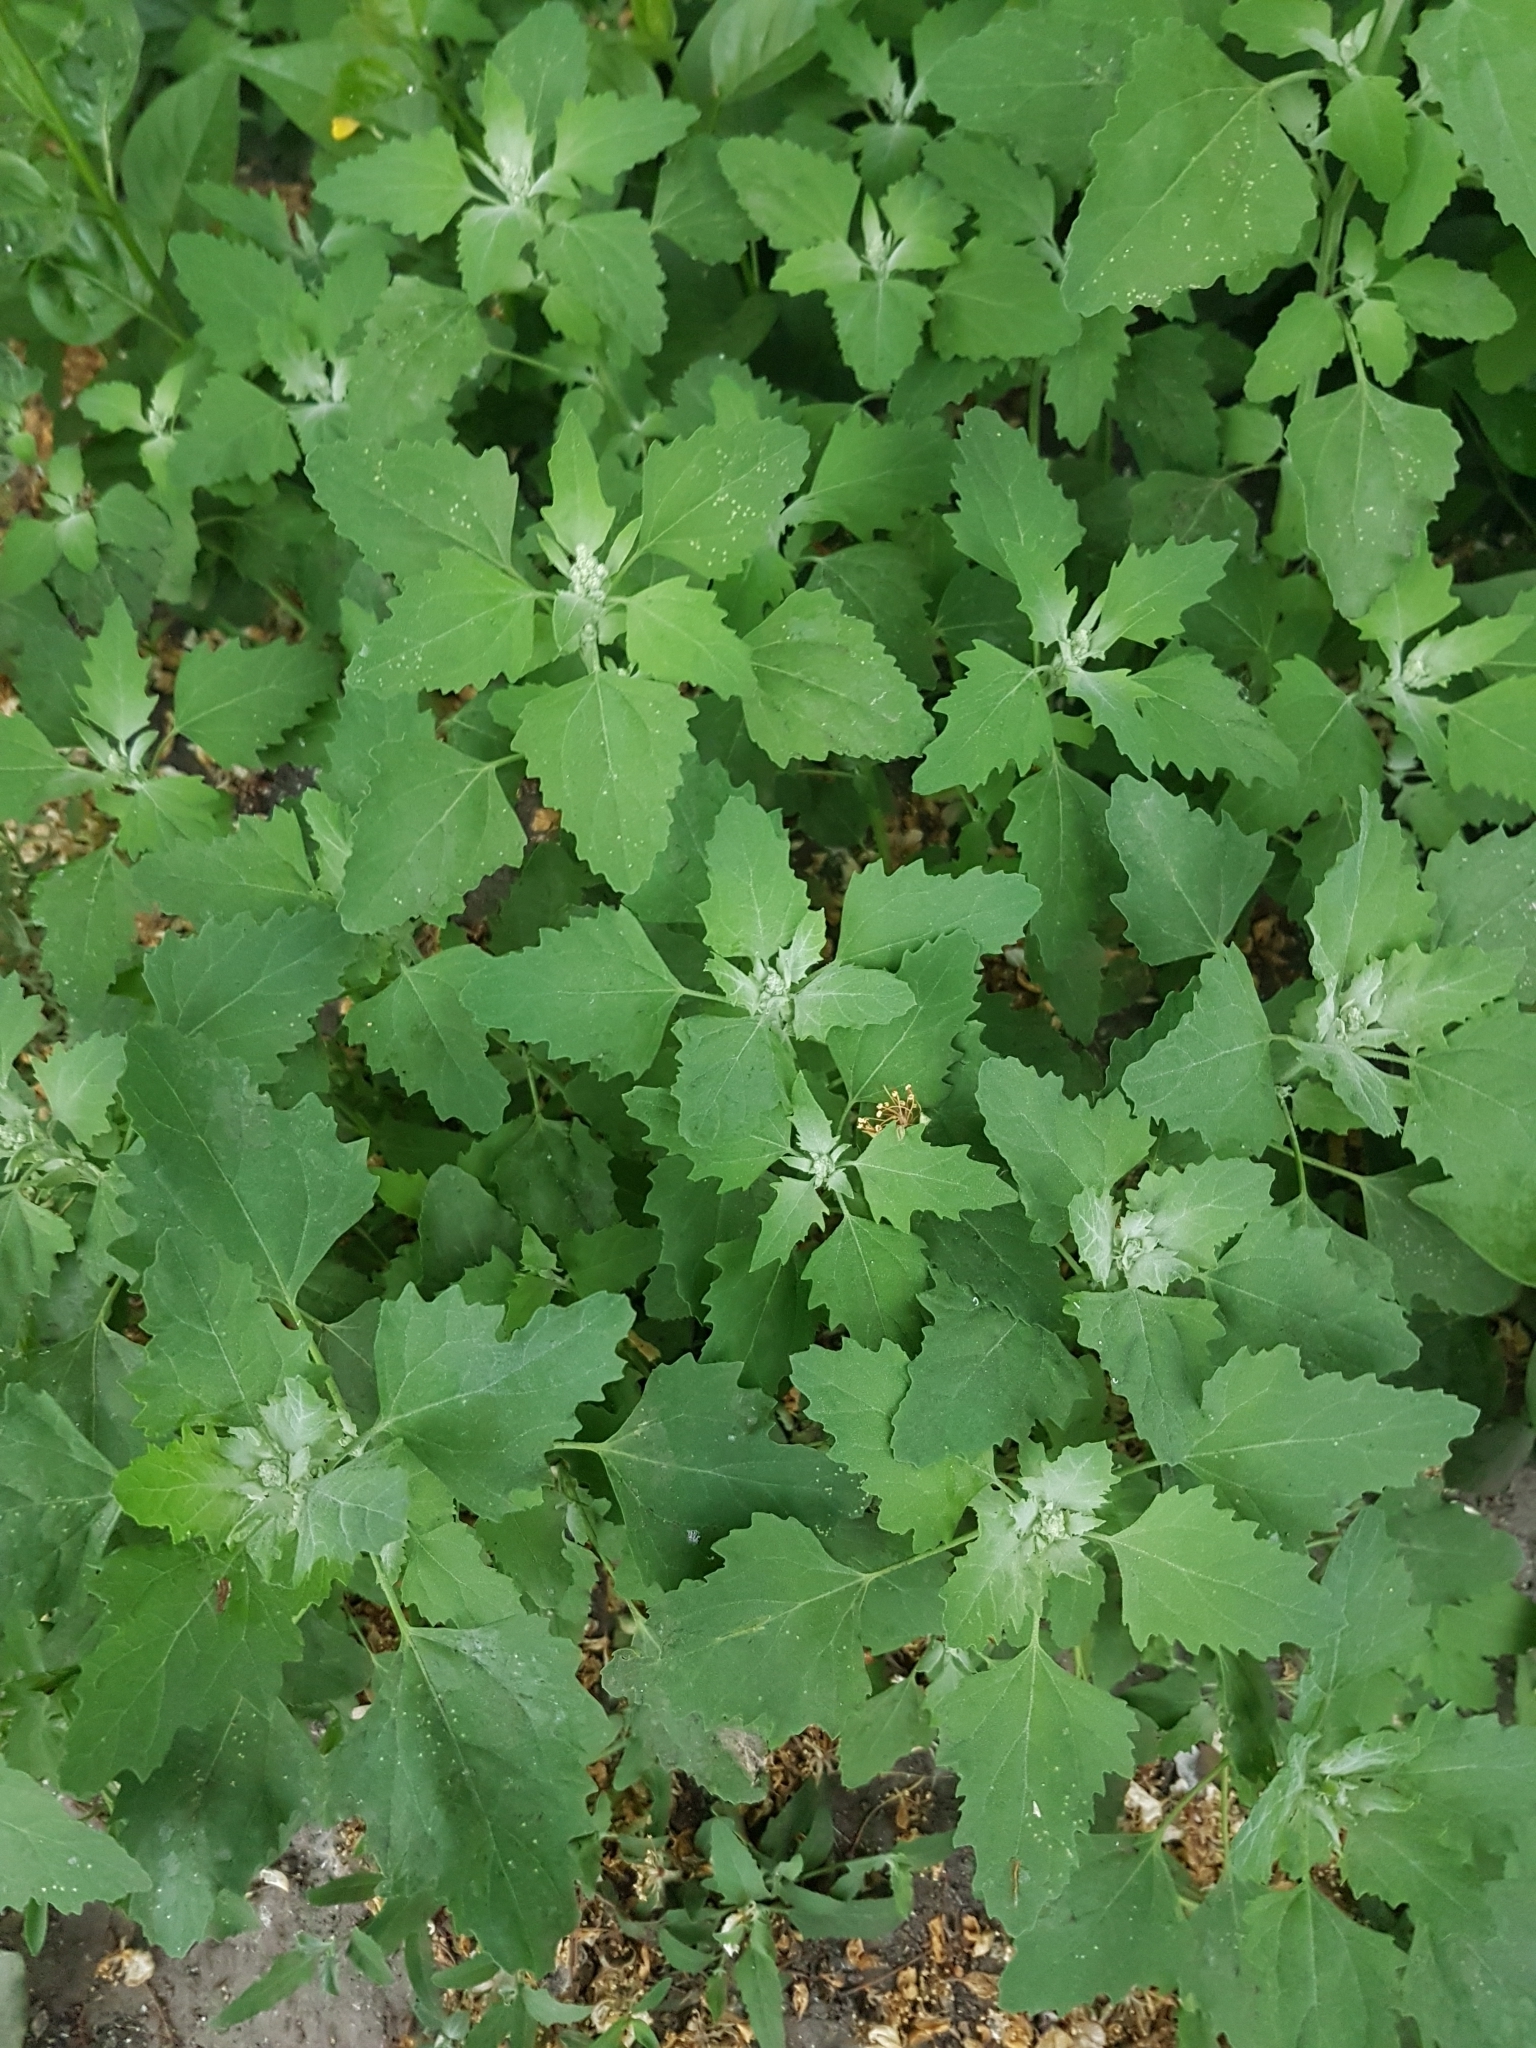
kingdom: Plantae
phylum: Tracheophyta
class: Magnoliopsida
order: Caryophyllales
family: Amaranthaceae
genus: Chenopodium
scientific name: Chenopodium album
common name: Fat-hen
